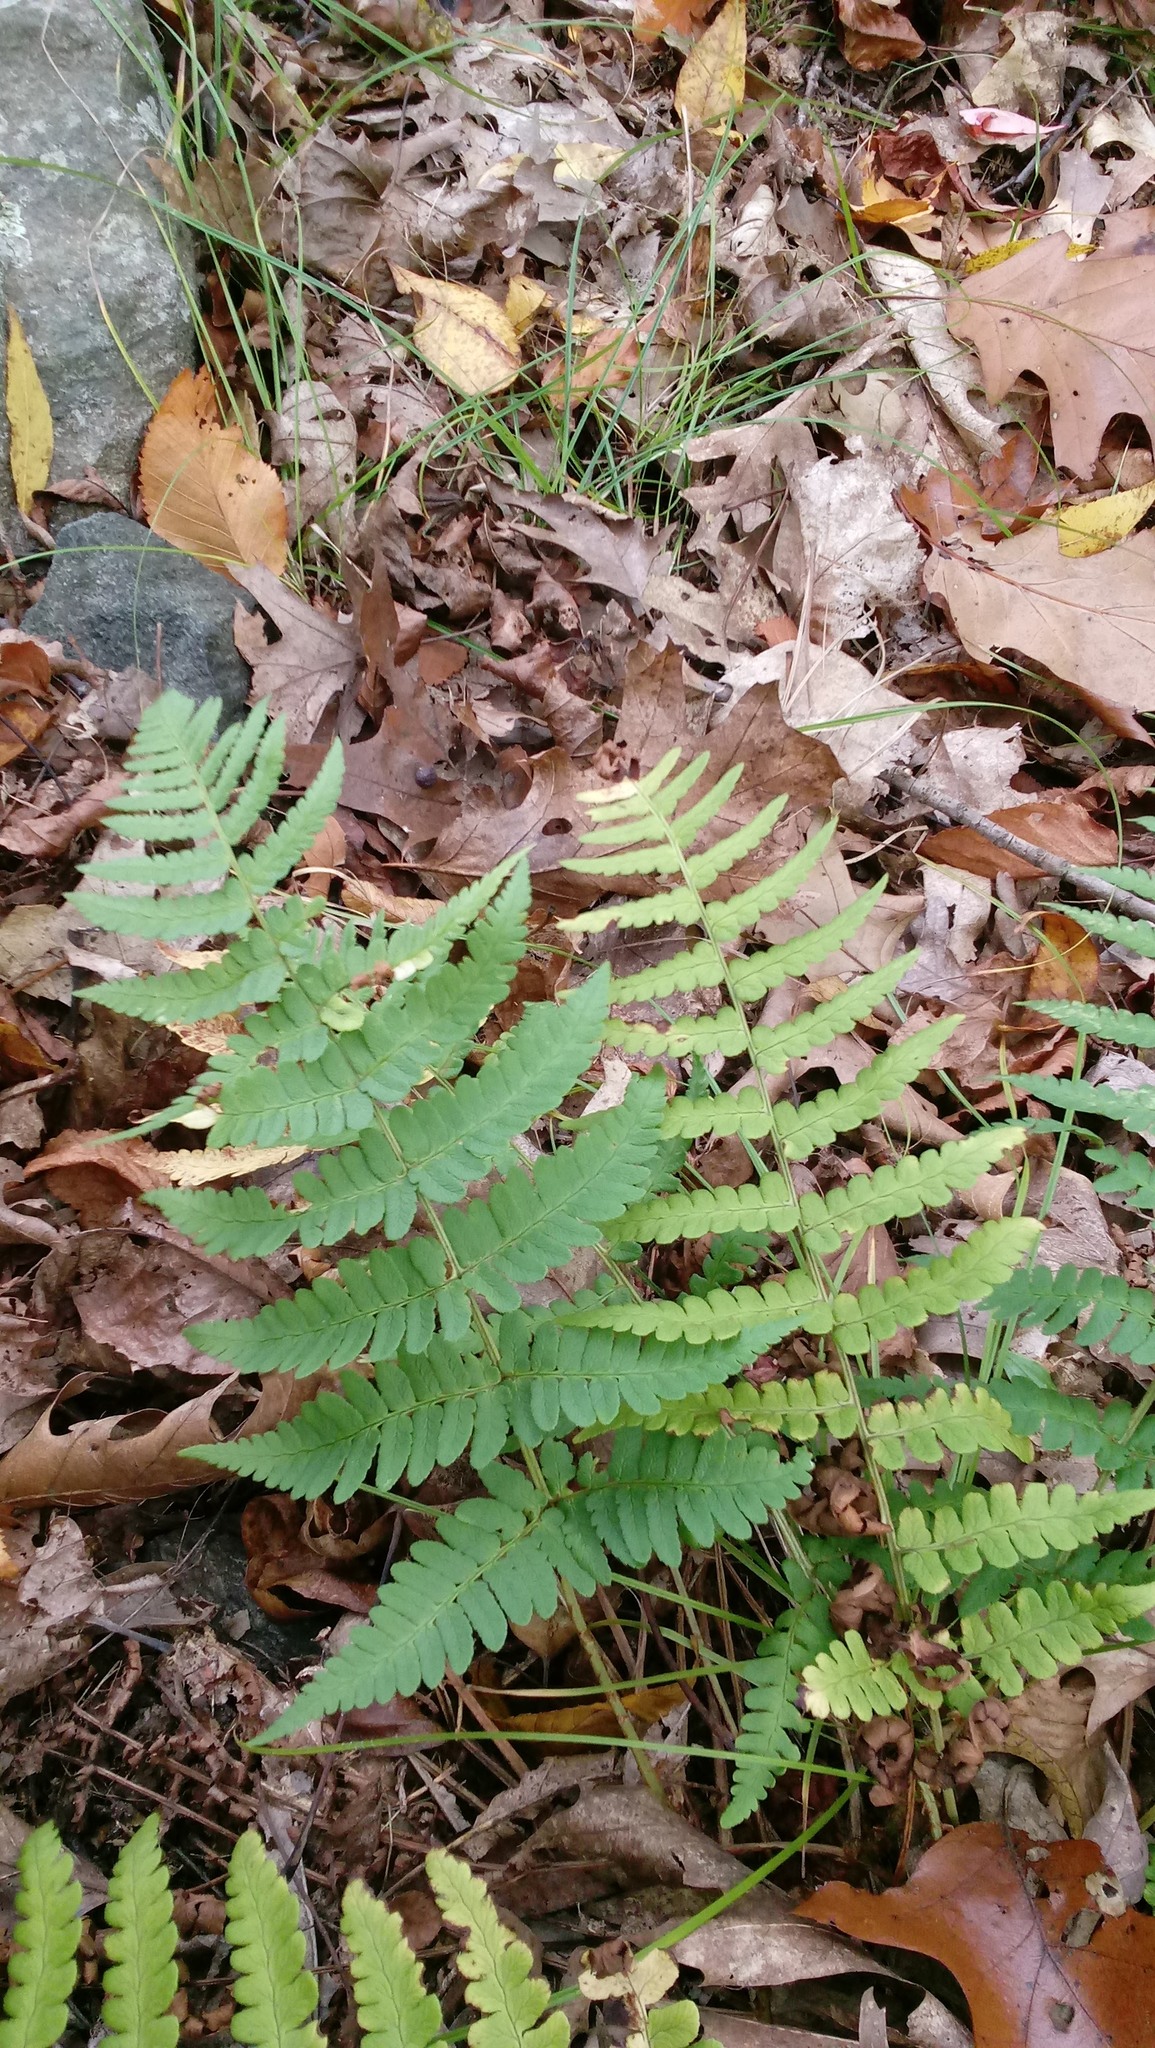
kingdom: Plantae
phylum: Tracheophyta
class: Polypodiopsida
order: Polypodiales
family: Dryopteridaceae
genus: Dryopteris
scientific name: Dryopteris marginalis
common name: Marginal wood fern
